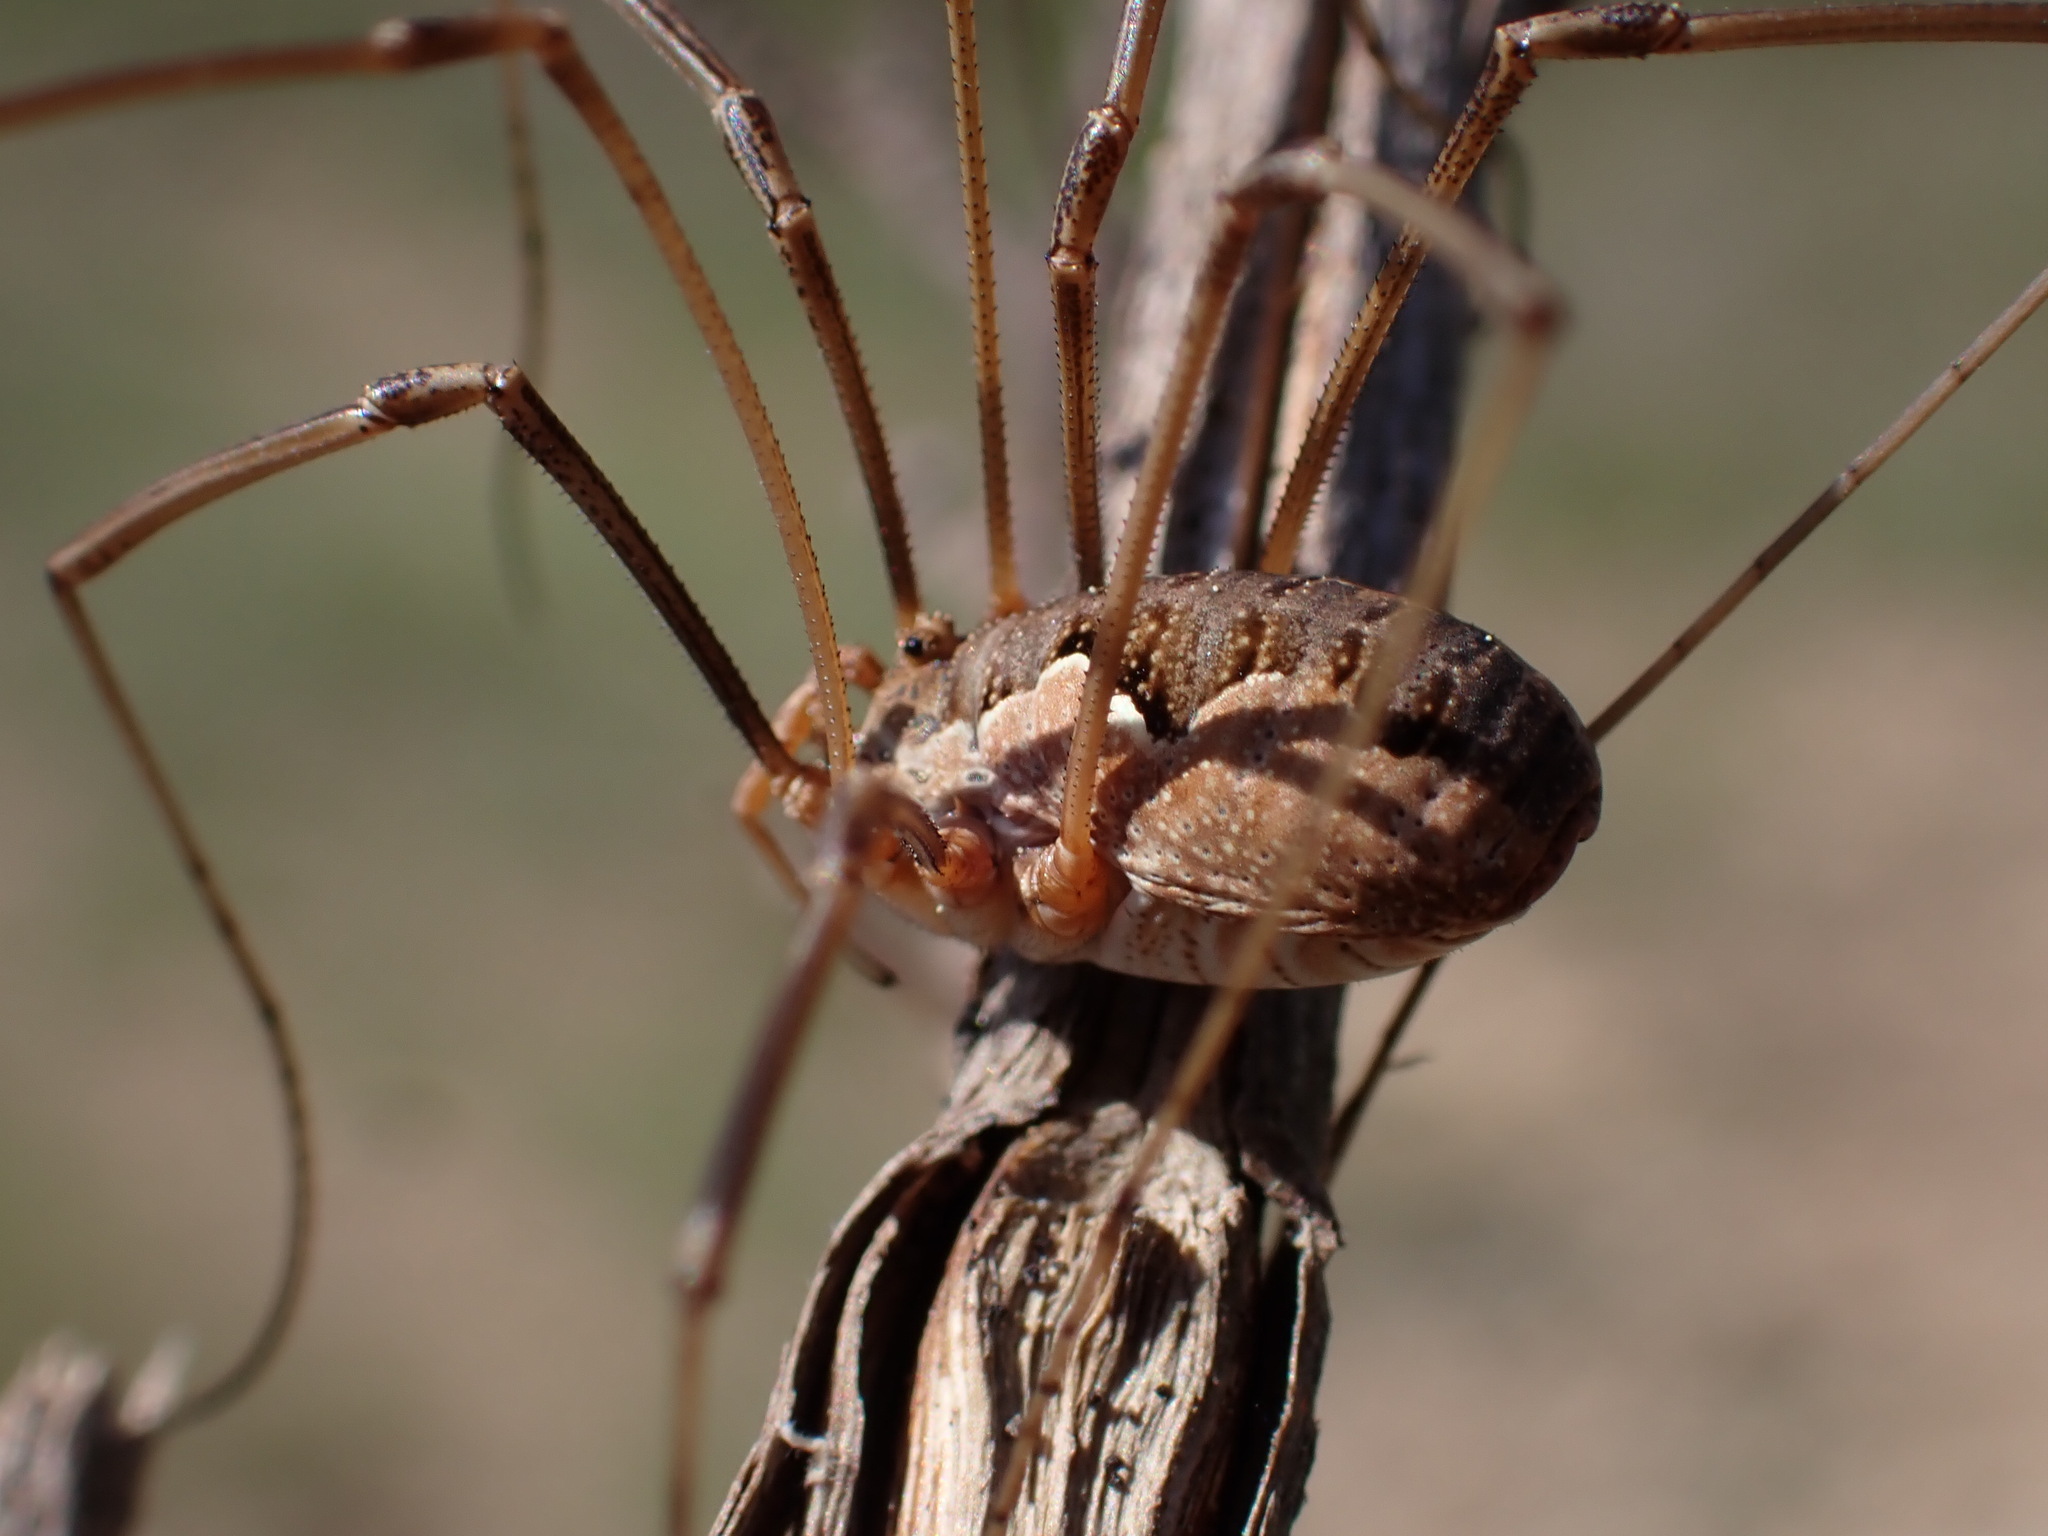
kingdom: Animalia
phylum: Arthropoda
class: Arachnida
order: Opiliones
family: Phalangiidae
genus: Phalangium
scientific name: Phalangium opilio
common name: Daddy longleg
